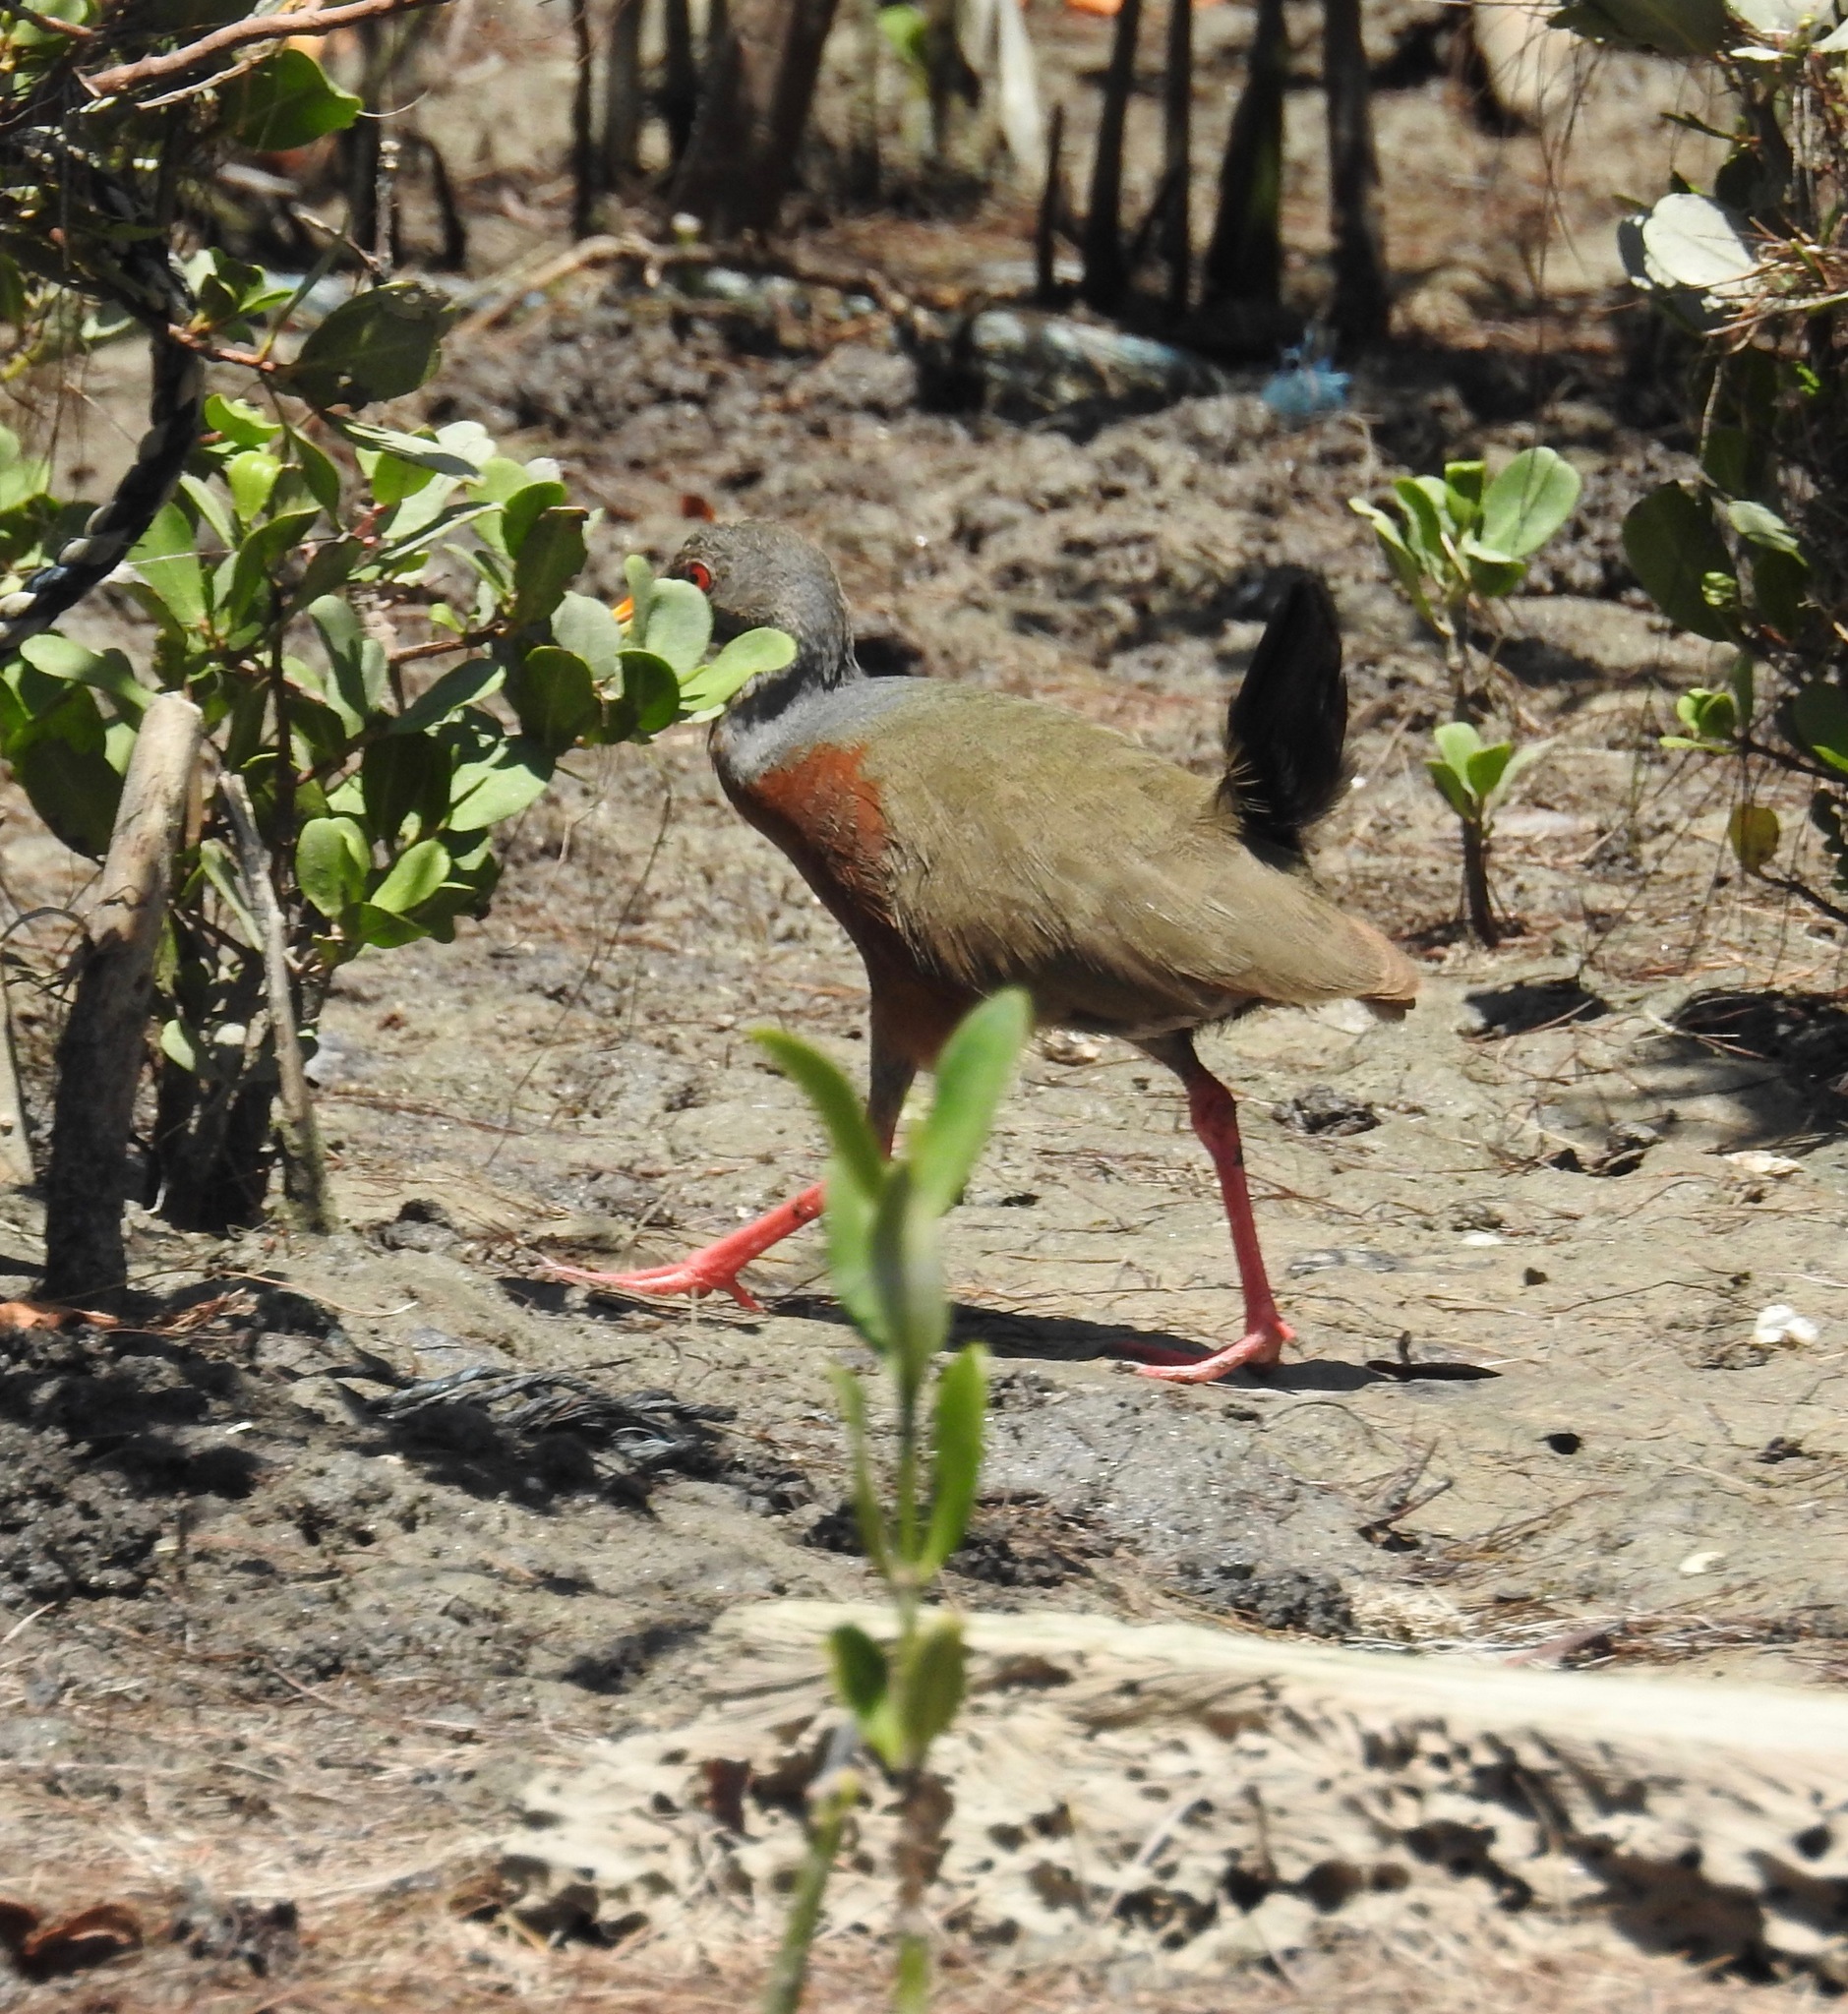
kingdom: Animalia
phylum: Chordata
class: Aves
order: Gruiformes
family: Rallidae
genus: Aramides
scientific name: Aramides mangle
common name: Little wood rail
